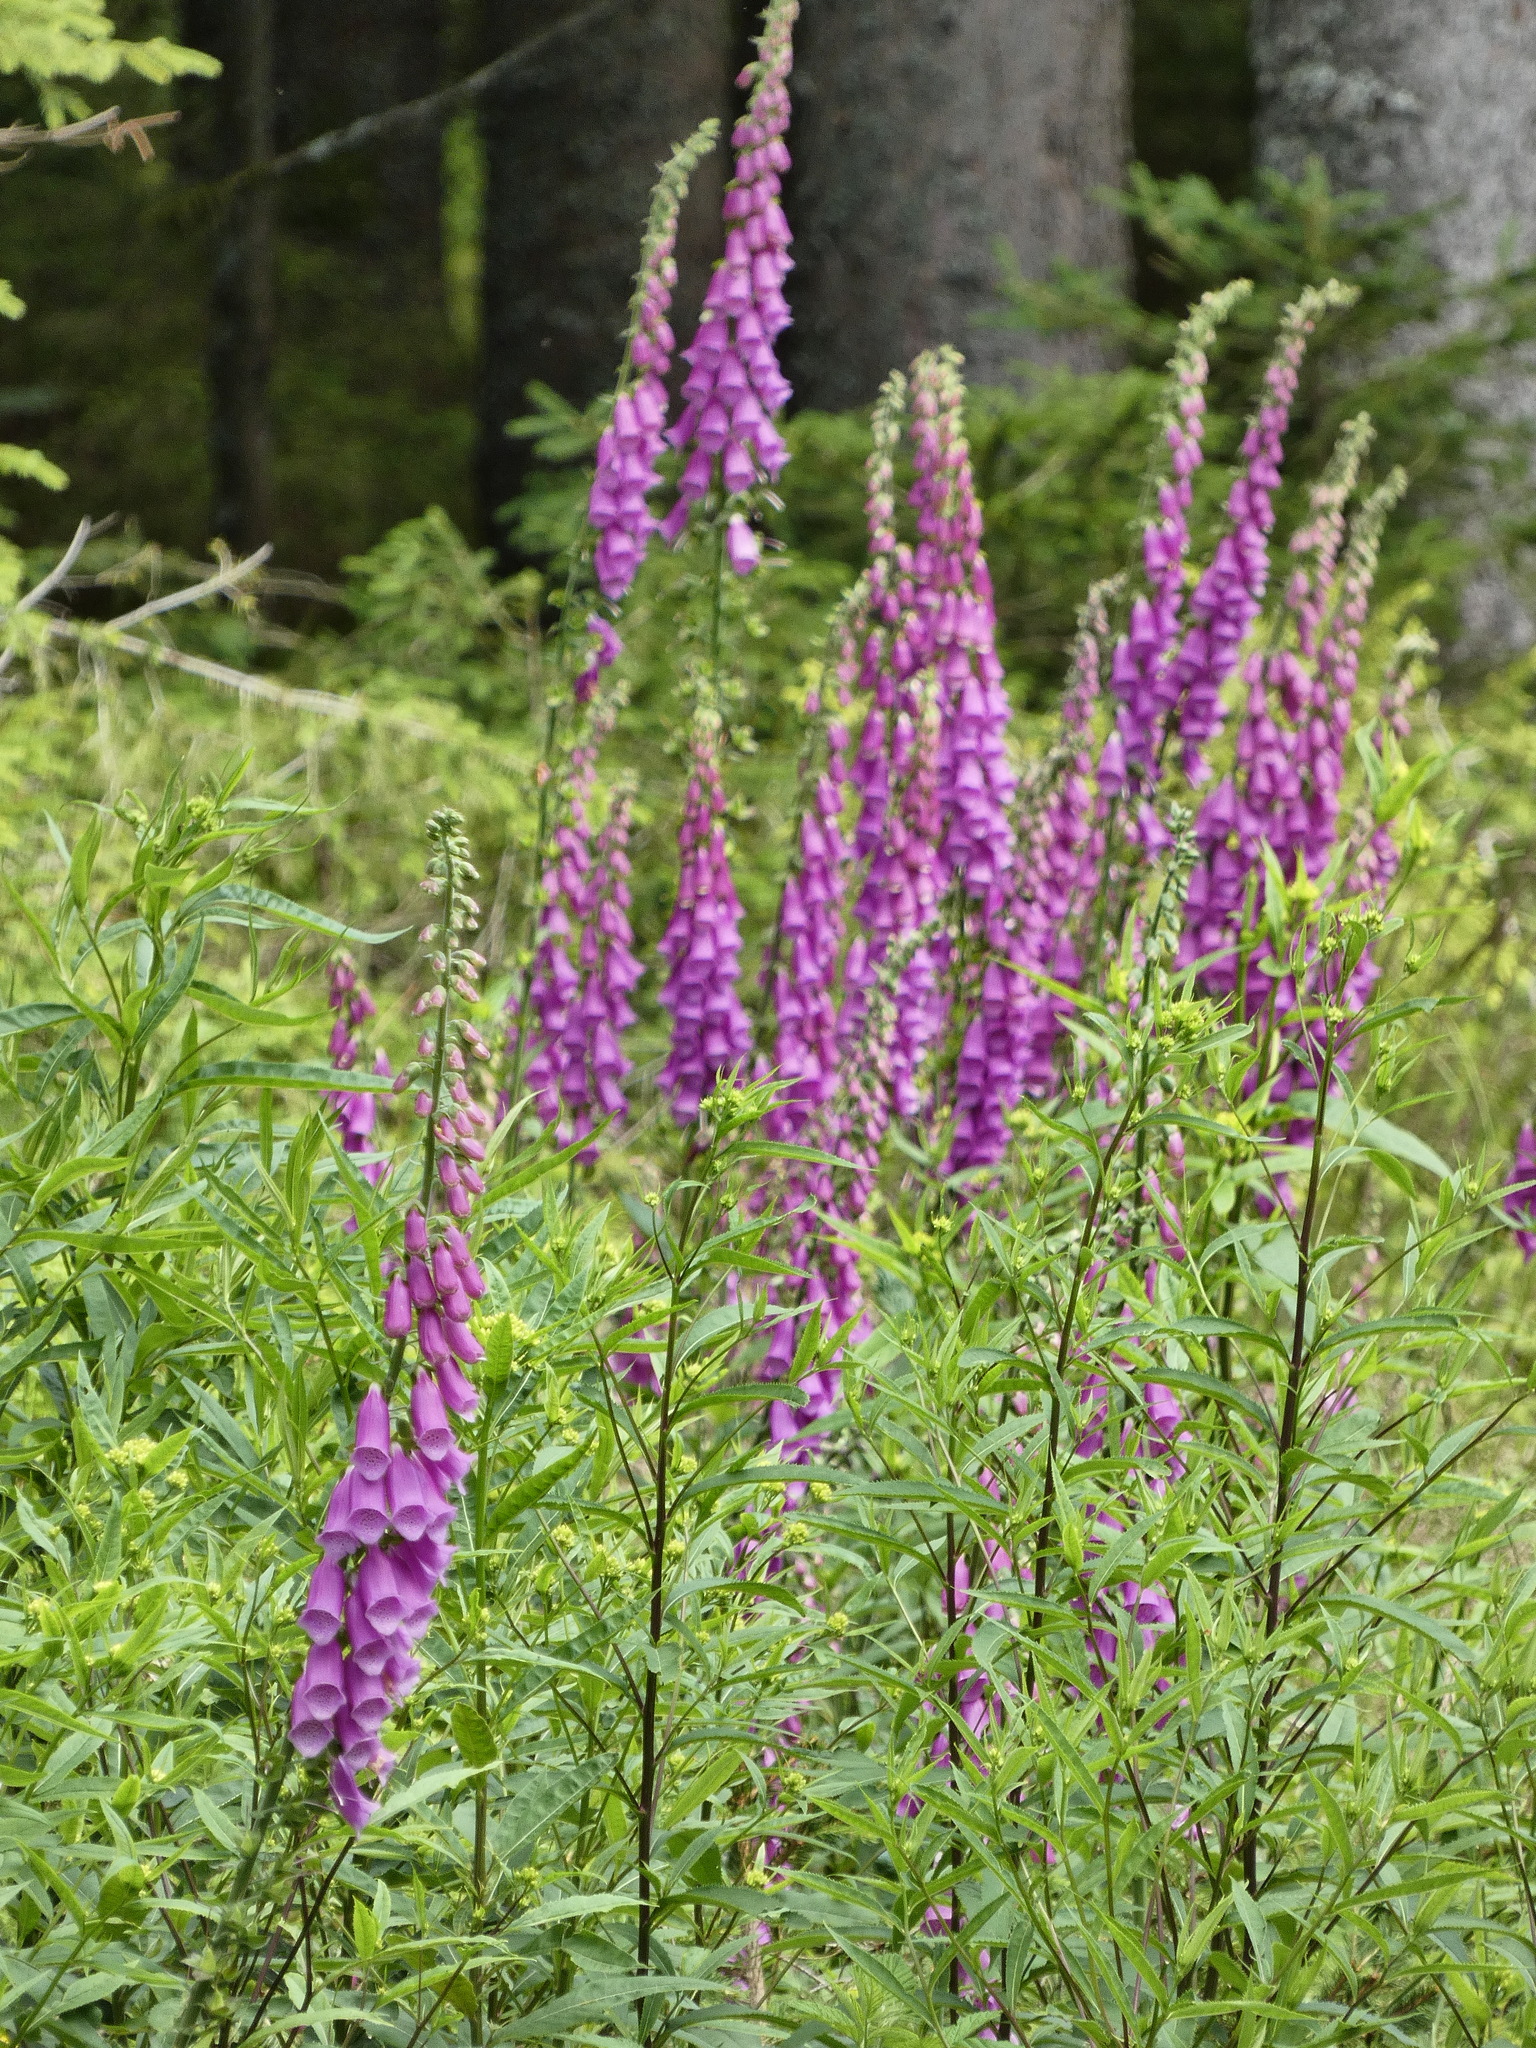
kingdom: Plantae
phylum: Tracheophyta
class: Magnoliopsida
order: Lamiales
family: Plantaginaceae
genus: Digitalis
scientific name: Digitalis purpurea
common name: Foxglove
